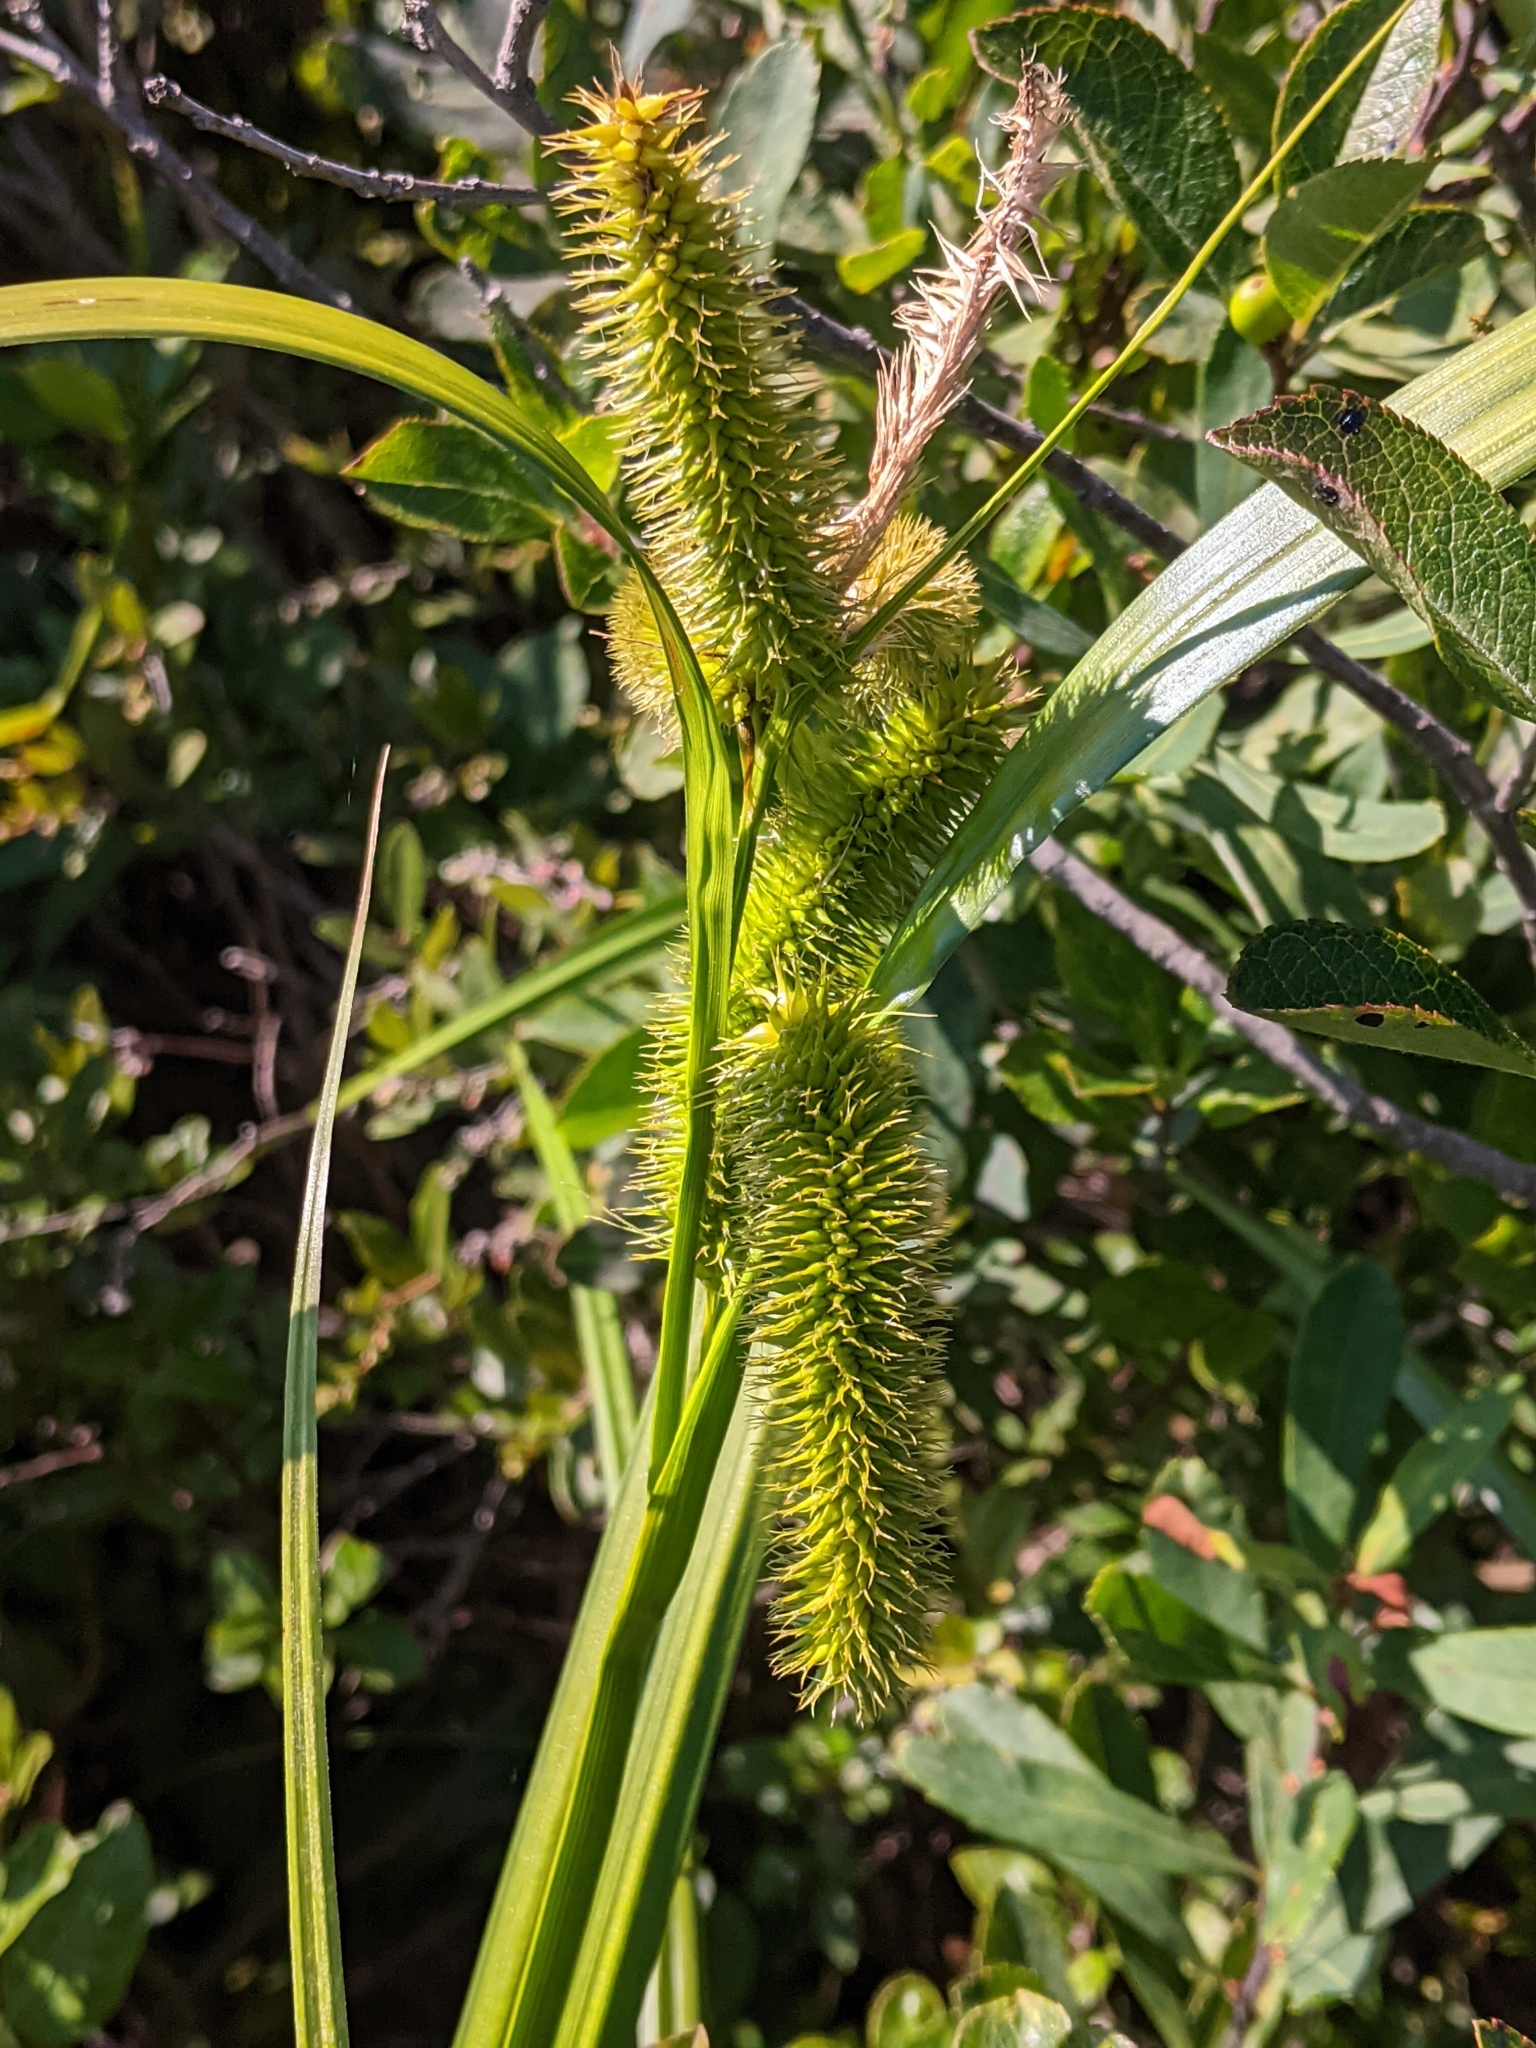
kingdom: Plantae
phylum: Tracheophyta
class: Liliopsida
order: Poales
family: Cyperaceae
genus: Carex
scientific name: Carex comosa
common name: Bristly sedge
